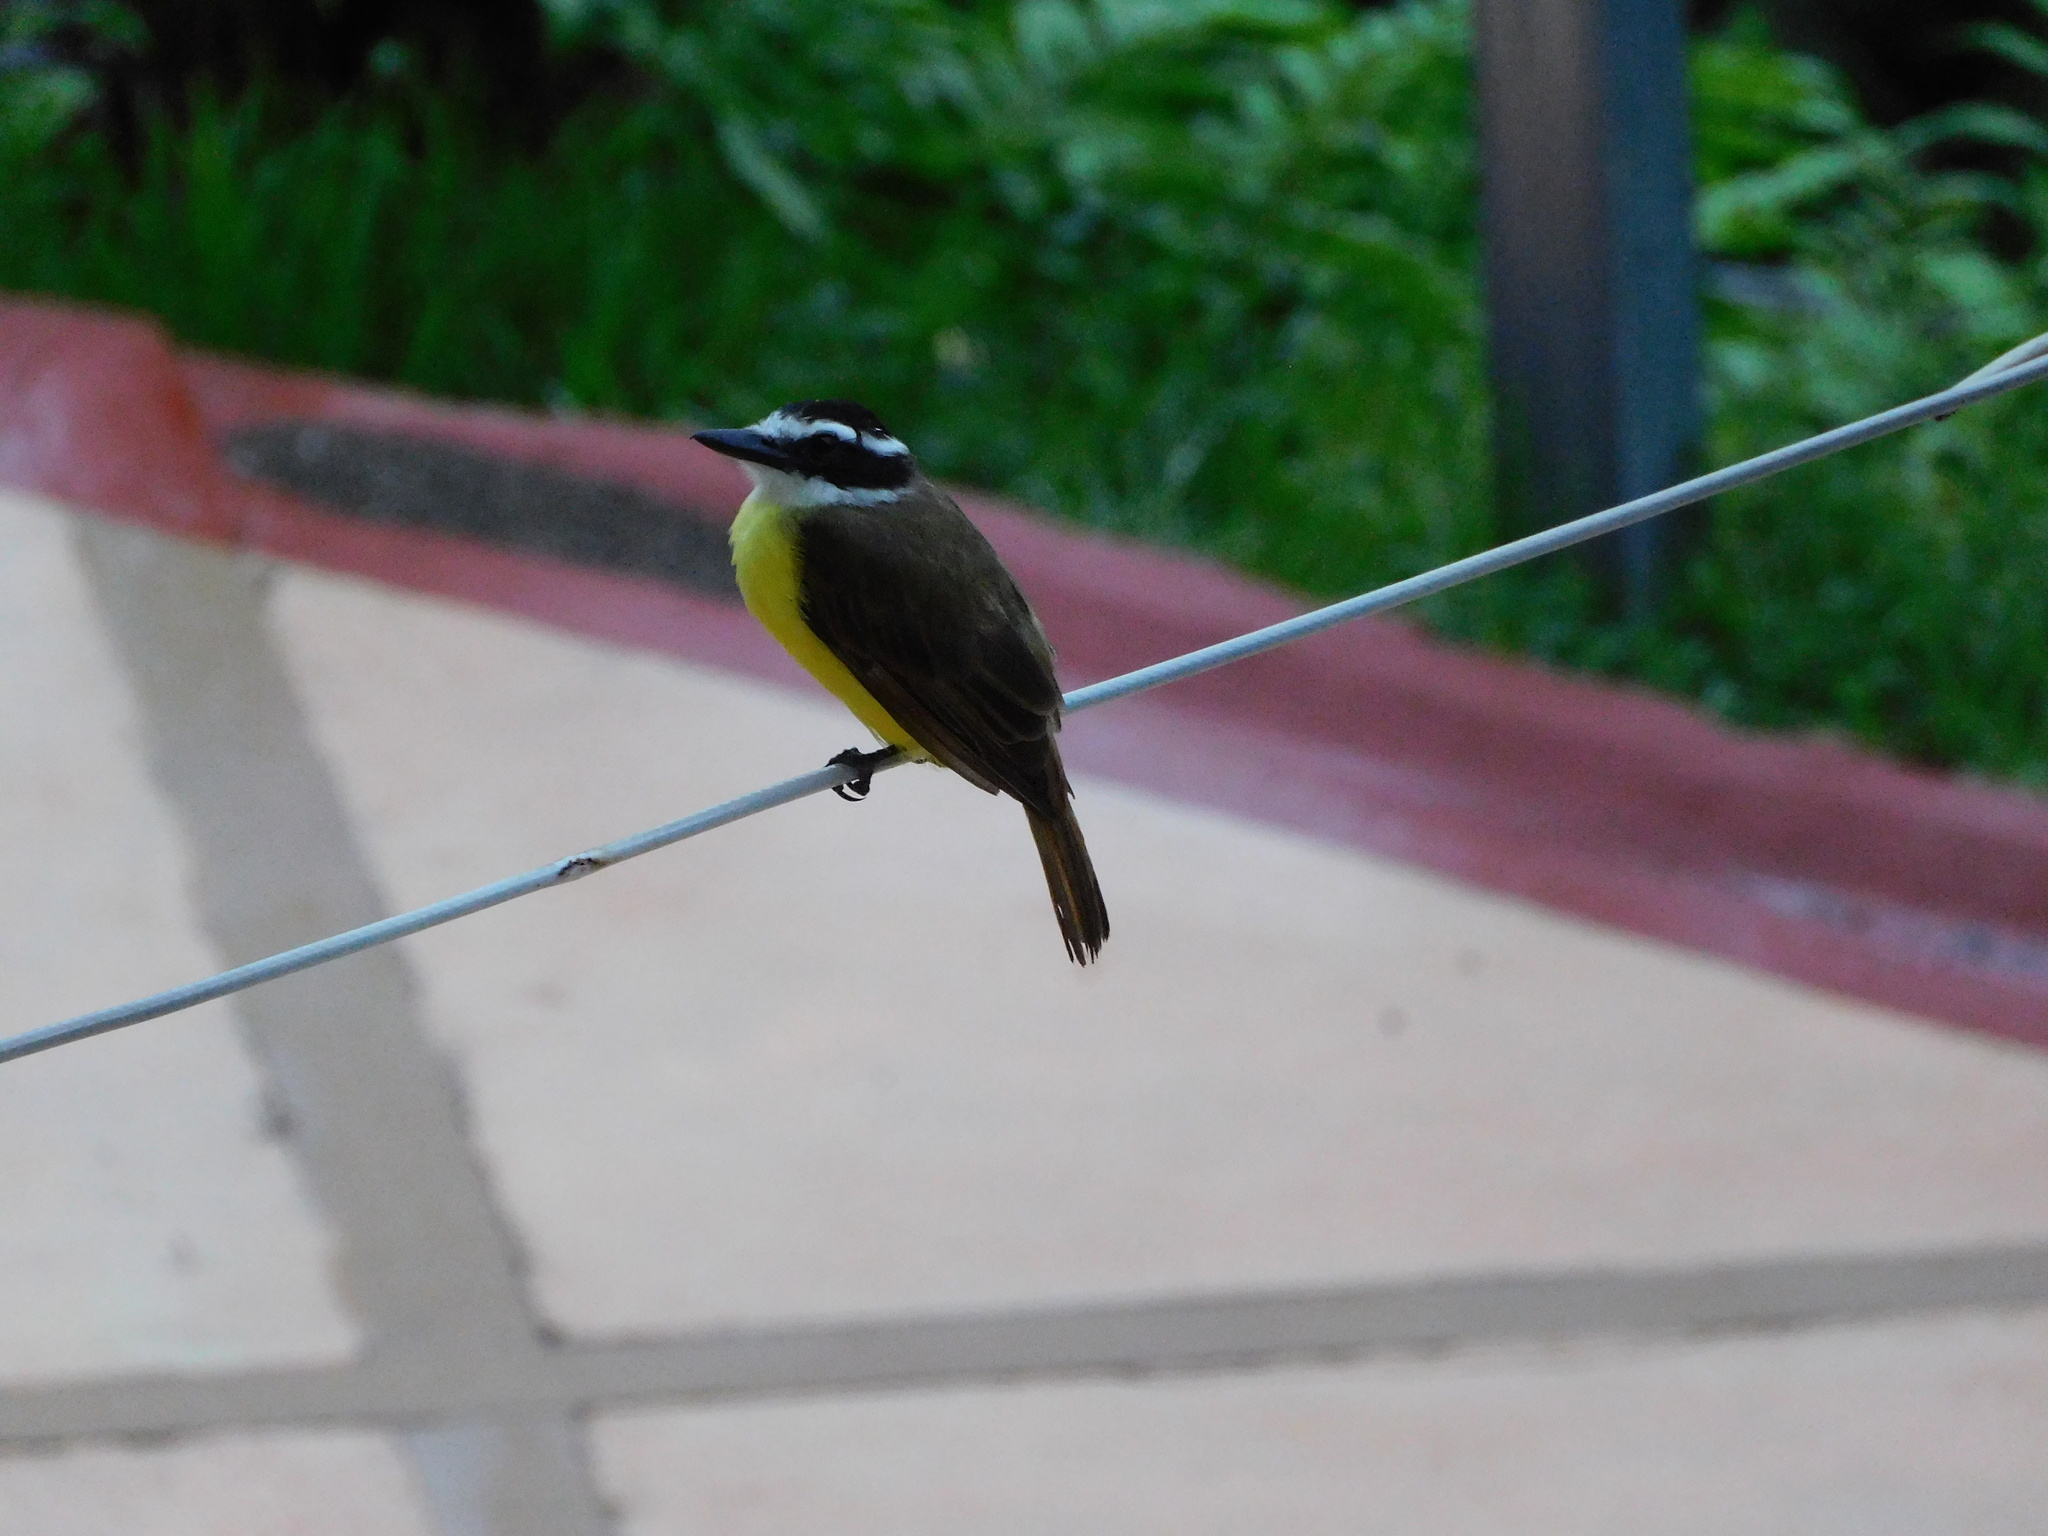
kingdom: Animalia
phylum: Chordata
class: Aves
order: Passeriformes
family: Tyrannidae
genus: Pitangus
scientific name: Pitangus sulphuratus
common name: Great kiskadee
